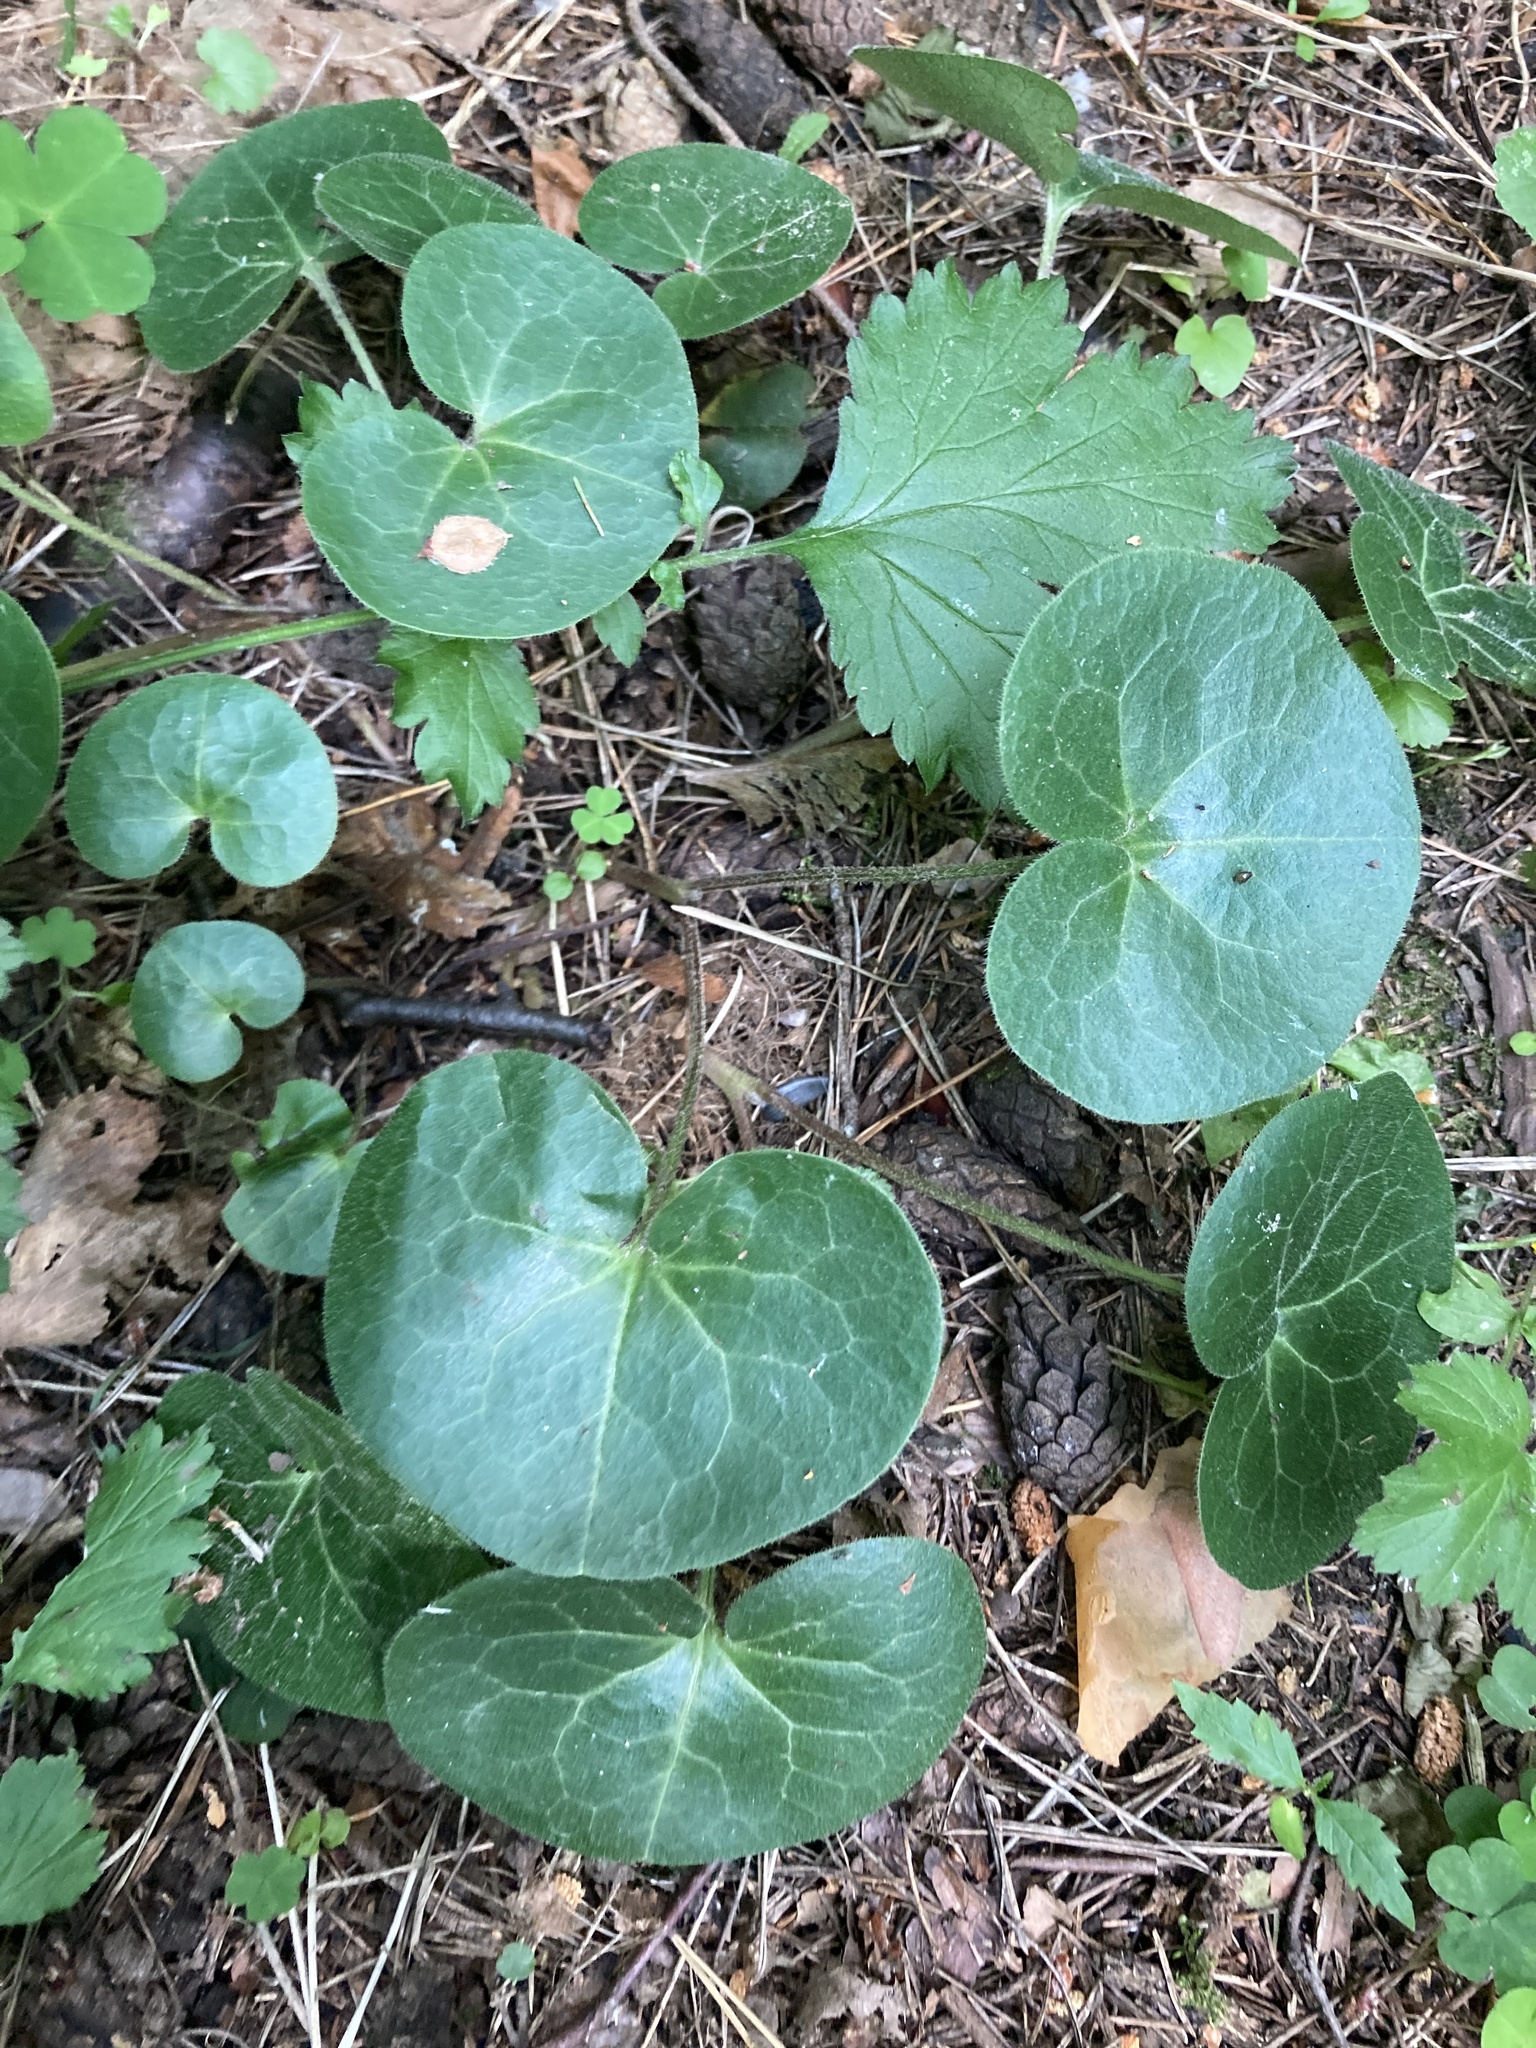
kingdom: Plantae
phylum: Tracheophyta
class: Magnoliopsida
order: Piperales
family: Aristolochiaceae
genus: Asarum
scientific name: Asarum europaeum
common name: Asarabacca
